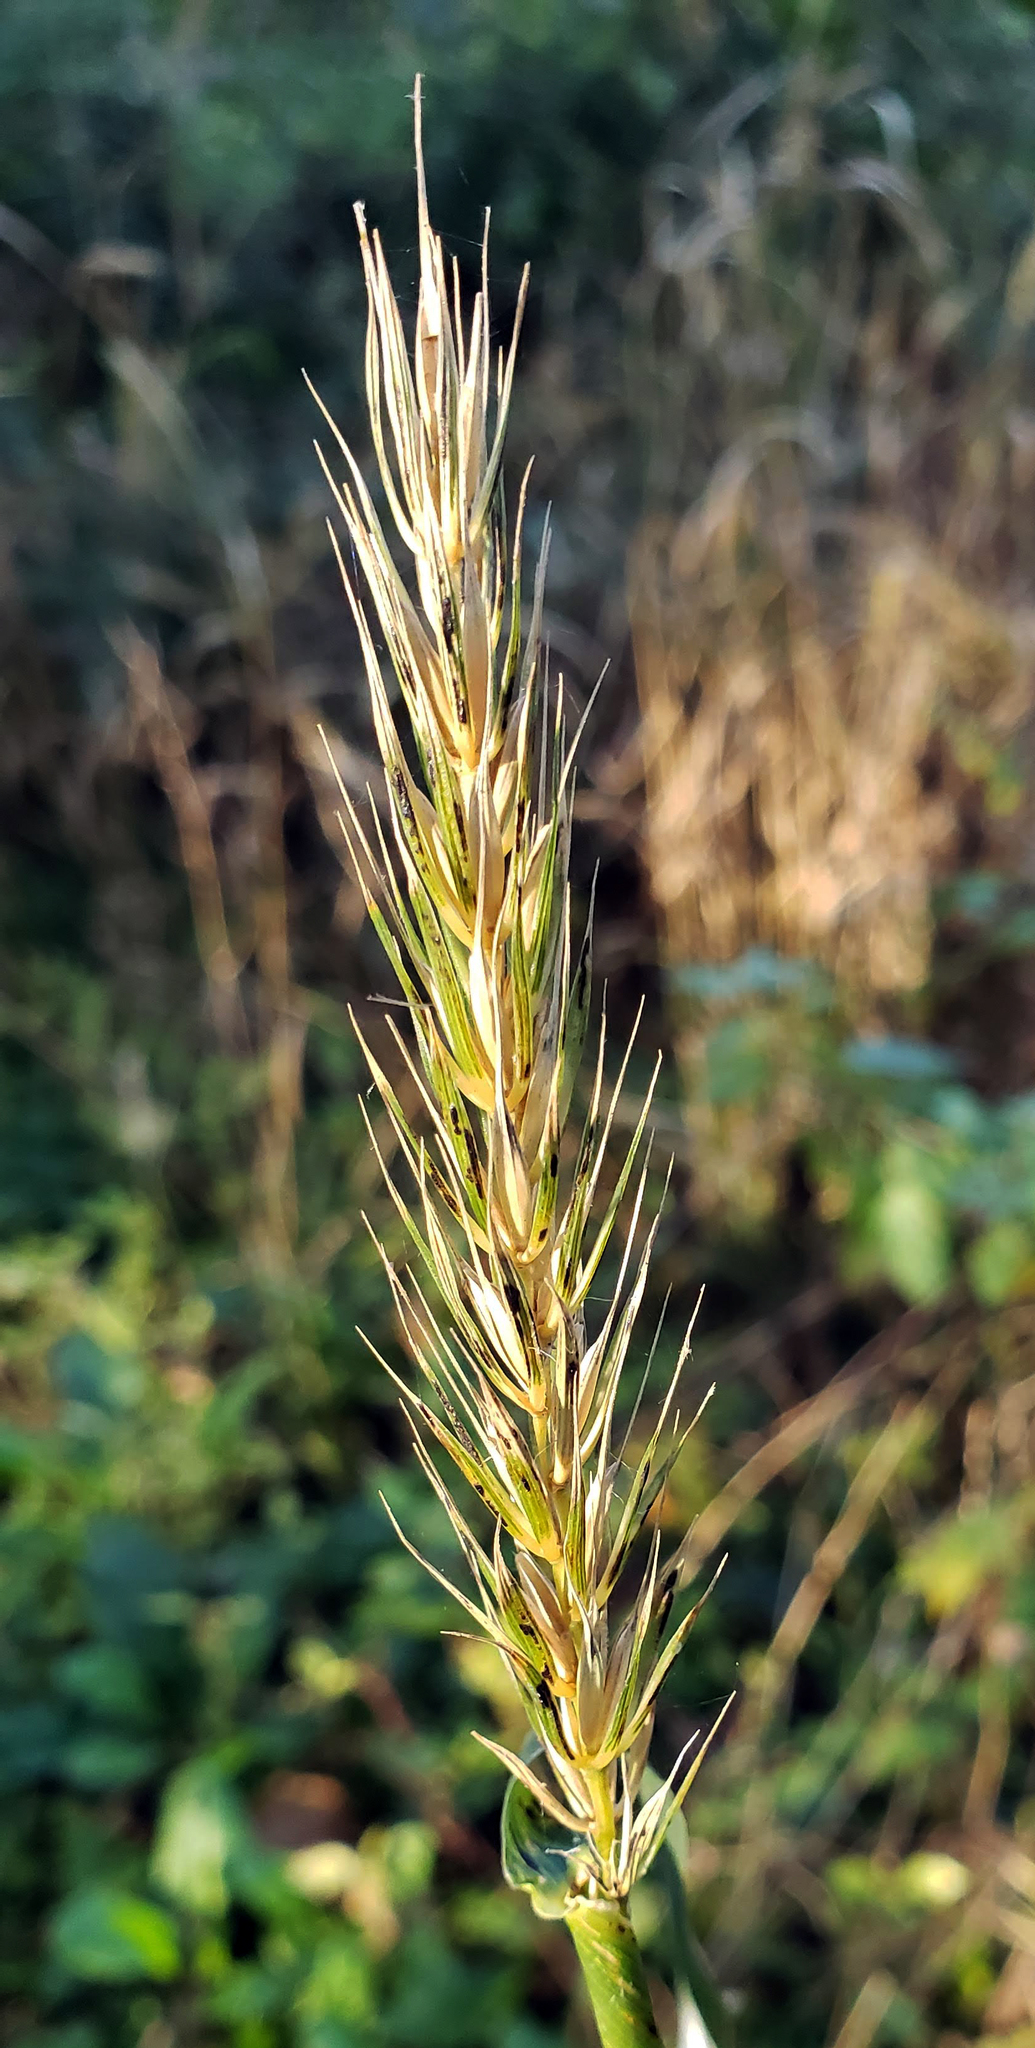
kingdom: Plantae
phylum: Tracheophyta
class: Liliopsida
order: Poales
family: Poaceae
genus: Elymus
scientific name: Elymus virginicus
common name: Common eastern wildrye
